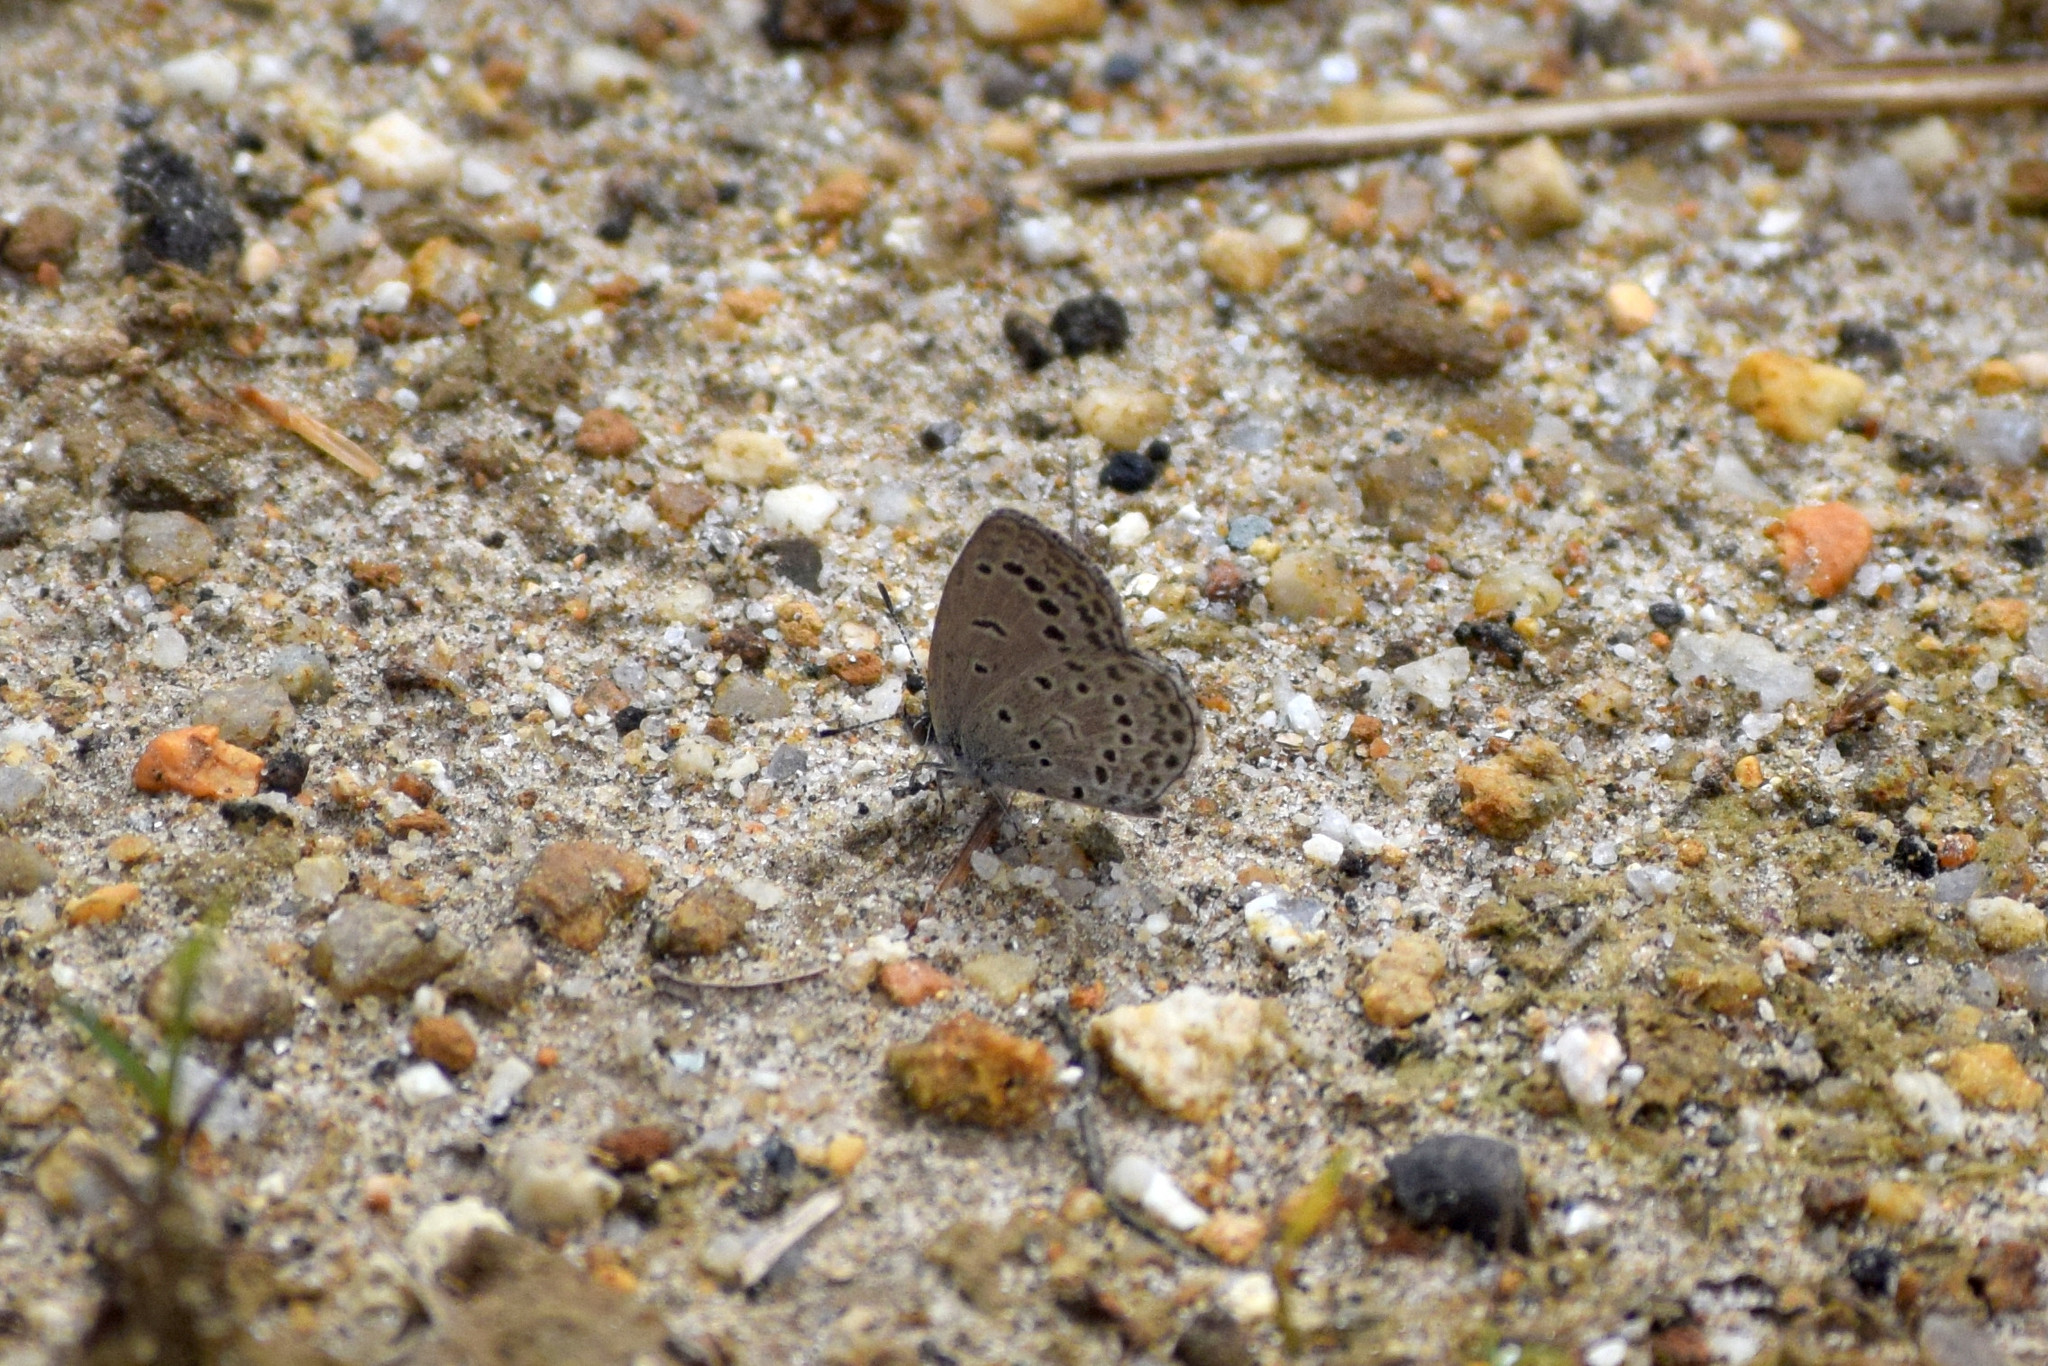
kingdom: Animalia
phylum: Arthropoda
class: Insecta
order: Lepidoptera
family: Lycaenidae
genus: Pseudozizeeria
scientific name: Pseudozizeeria maha
